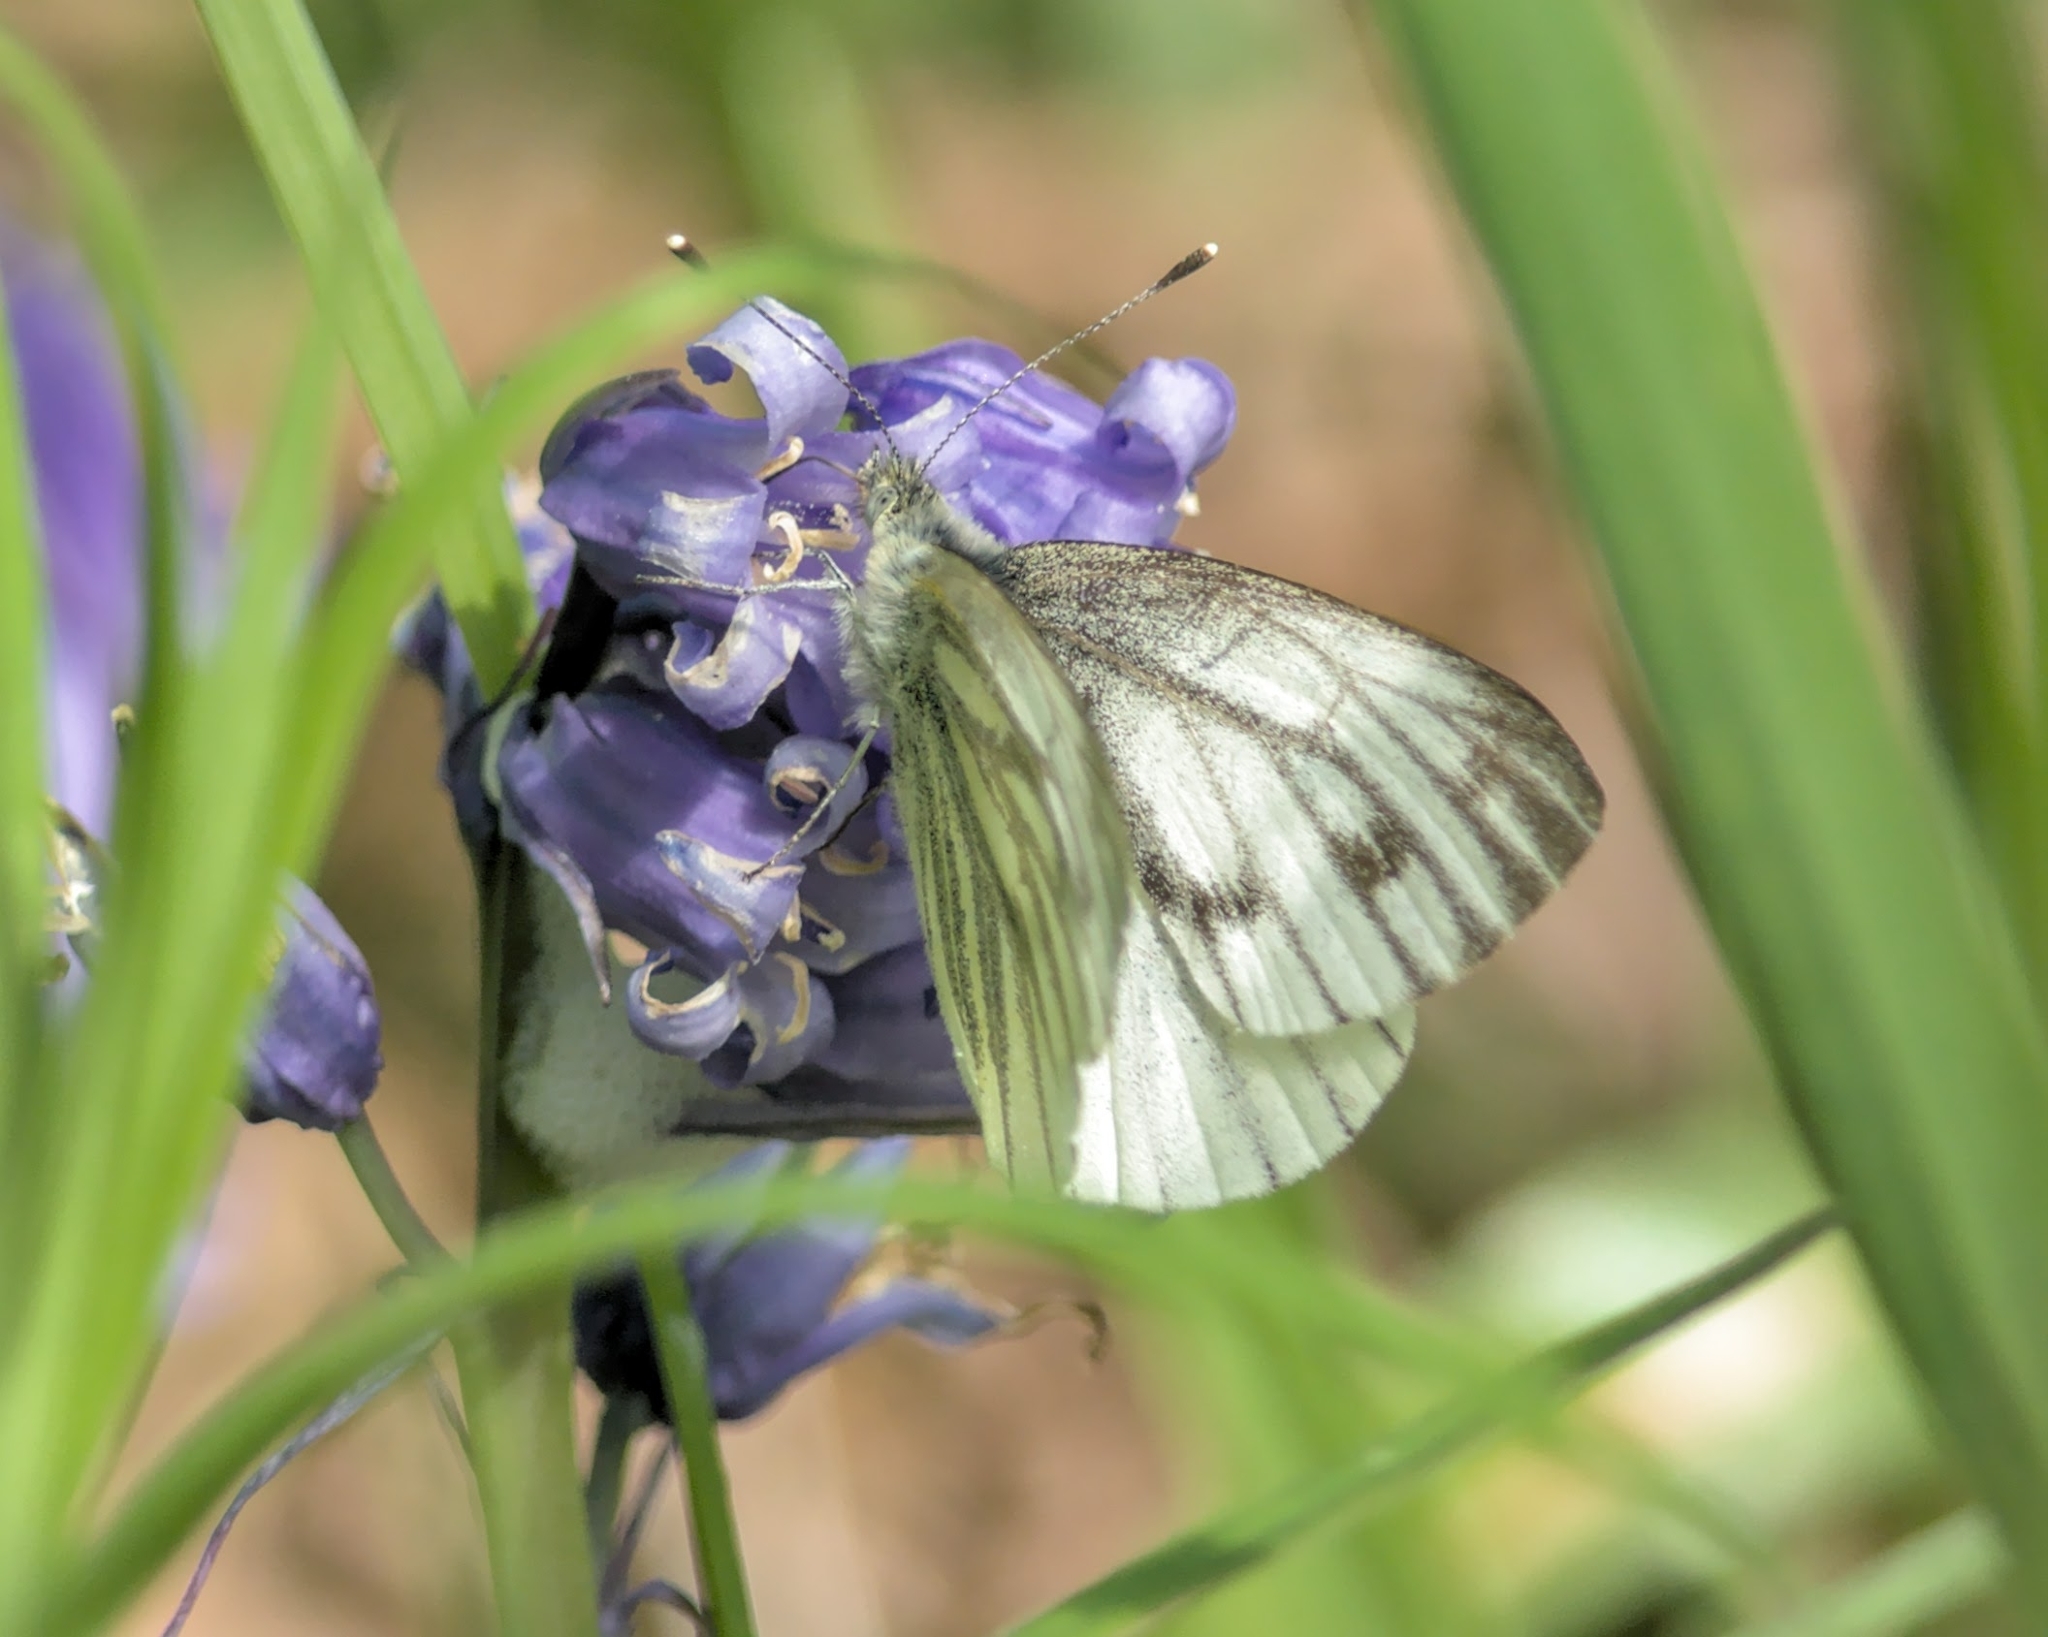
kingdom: Animalia
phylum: Arthropoda
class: Insecta
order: Lepidoptera
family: Pieridae
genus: Pieris
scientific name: Pieris napi
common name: Green-veined white
